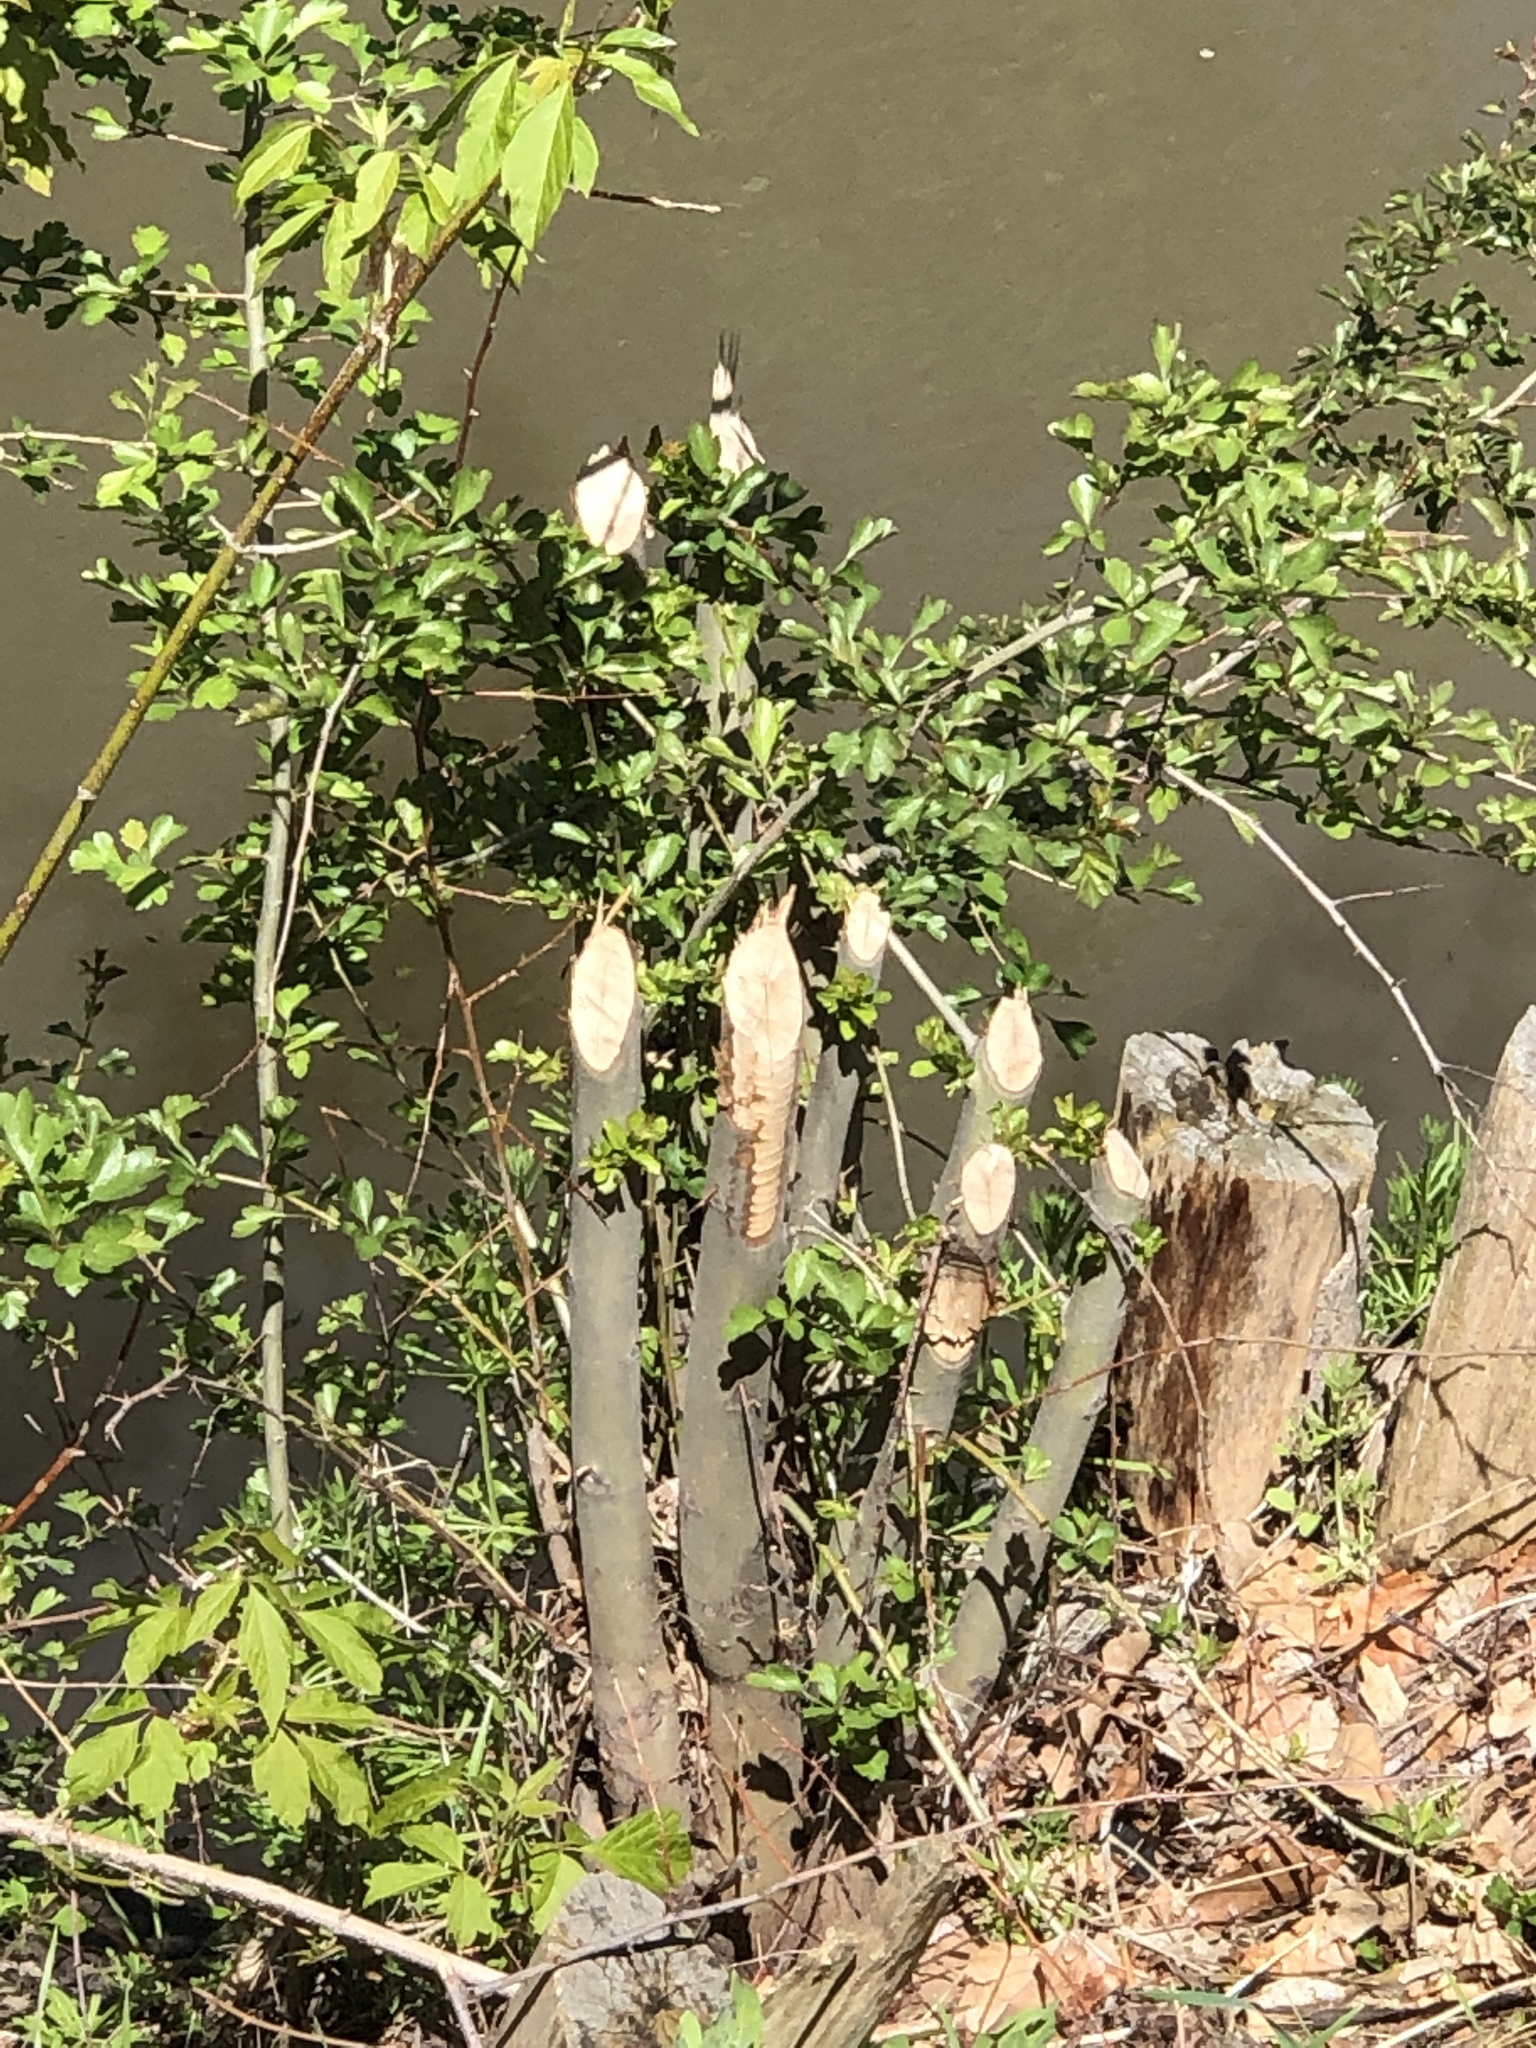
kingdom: Animalia
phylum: Chordata
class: Mammalia
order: Rodentia
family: Castoridae
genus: Castor
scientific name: Castor canadensis
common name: American beaver
